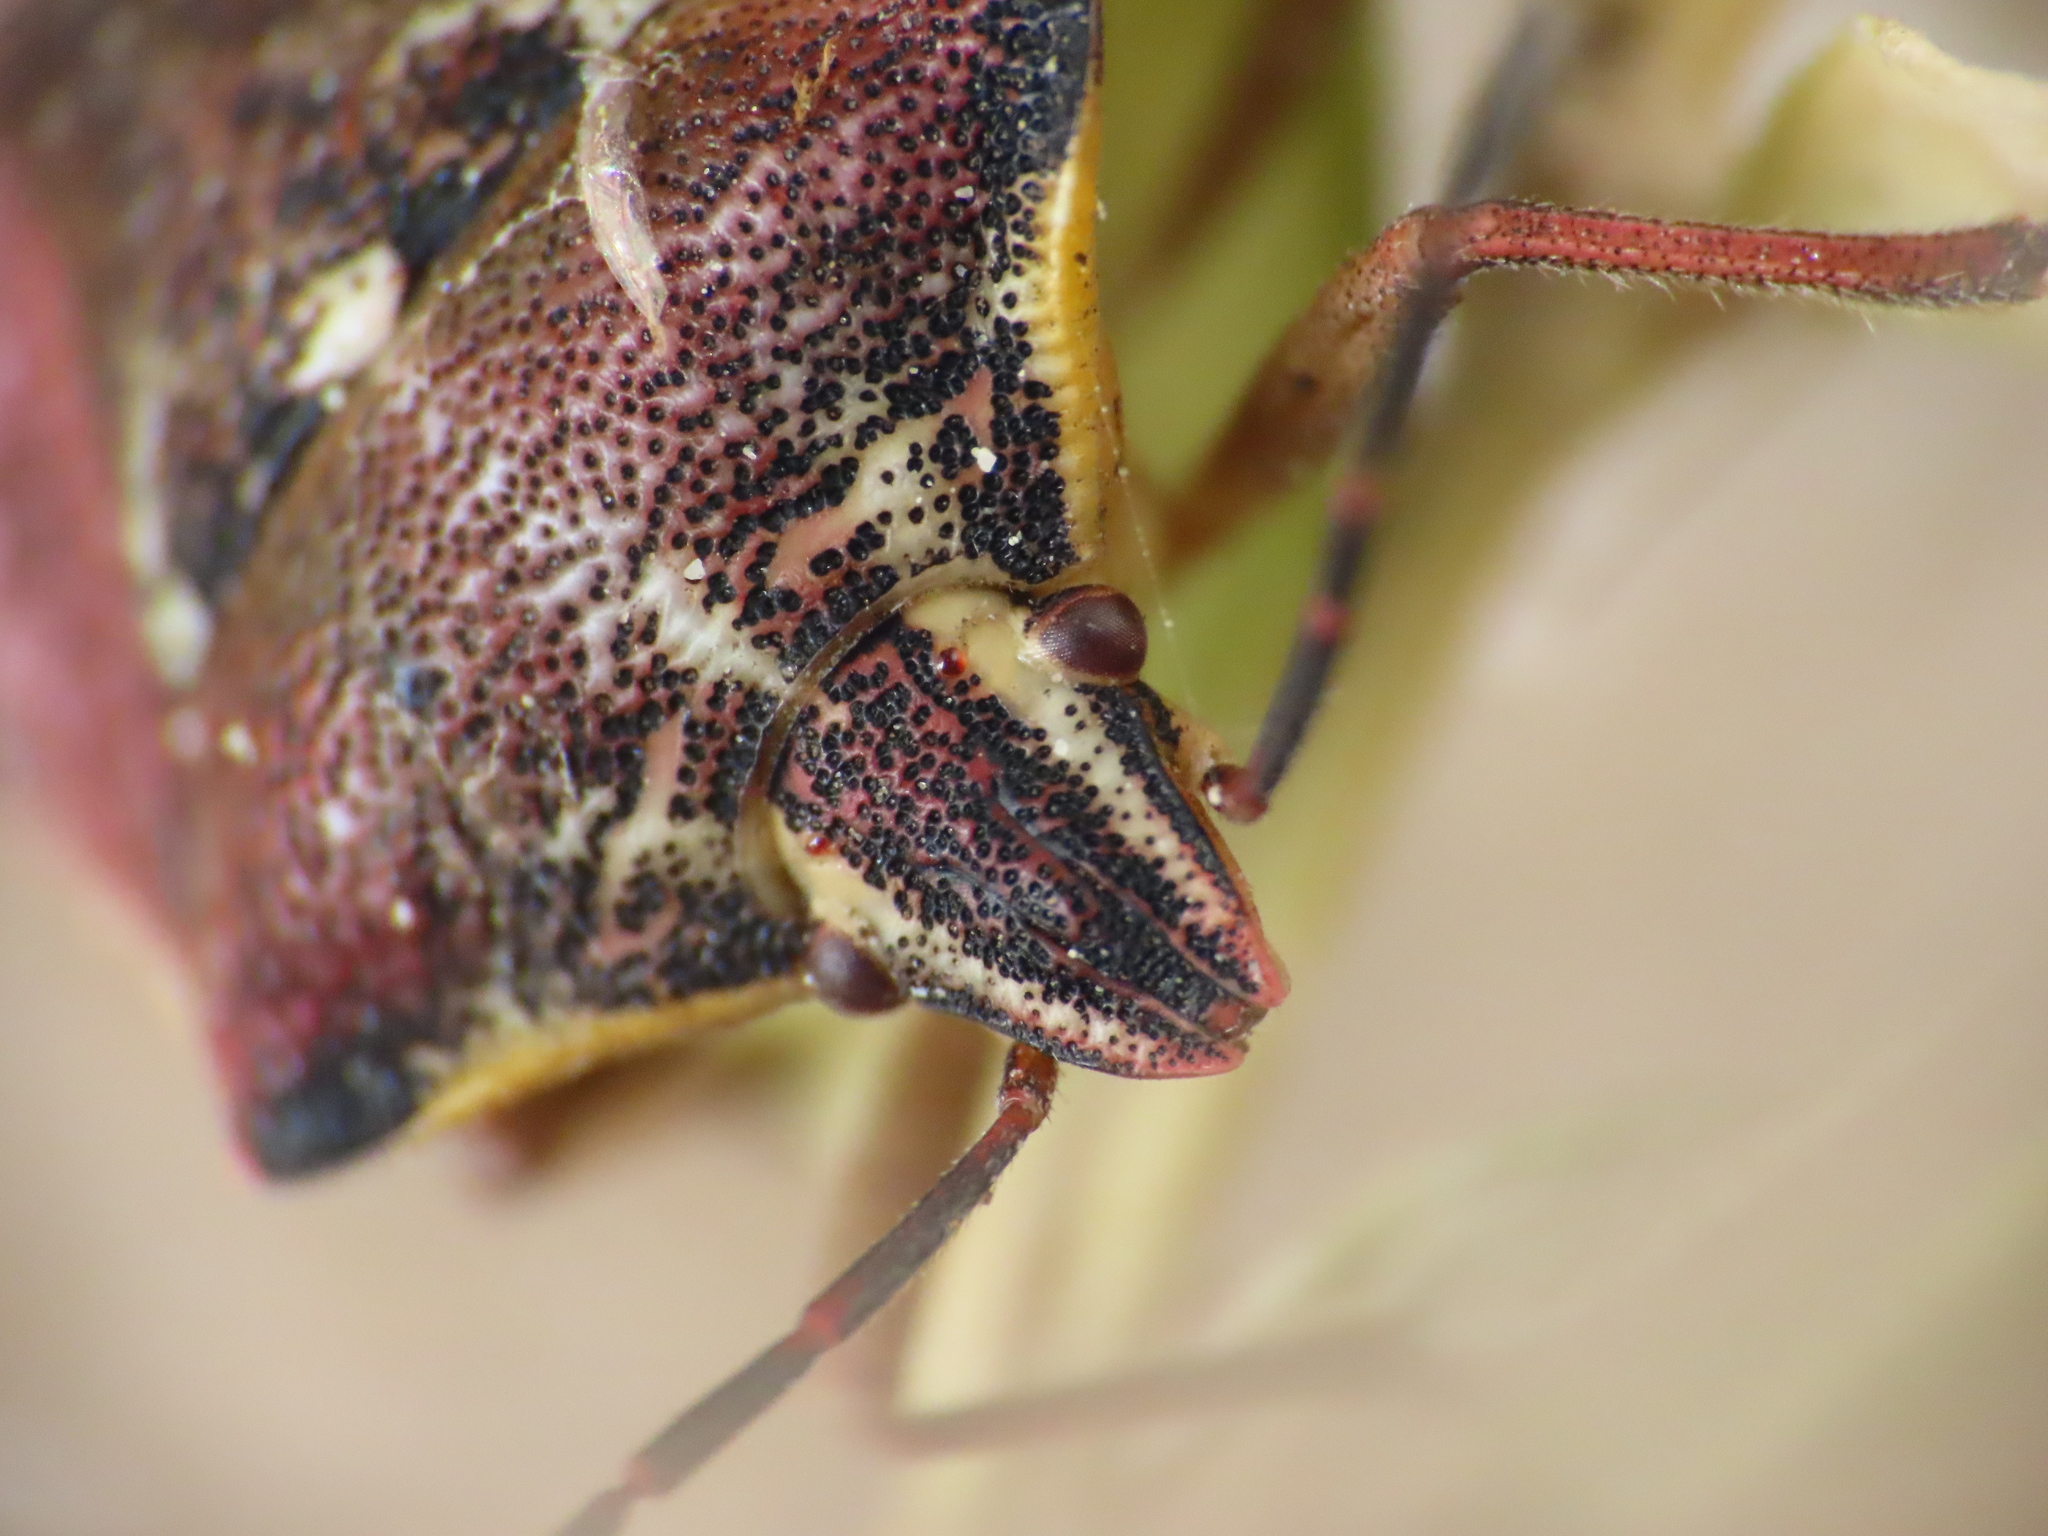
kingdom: Animalia
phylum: Arthropoda
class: Insecta
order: Hemiptera
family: Miridae
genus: Orthops
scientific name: Orthops kalmii
